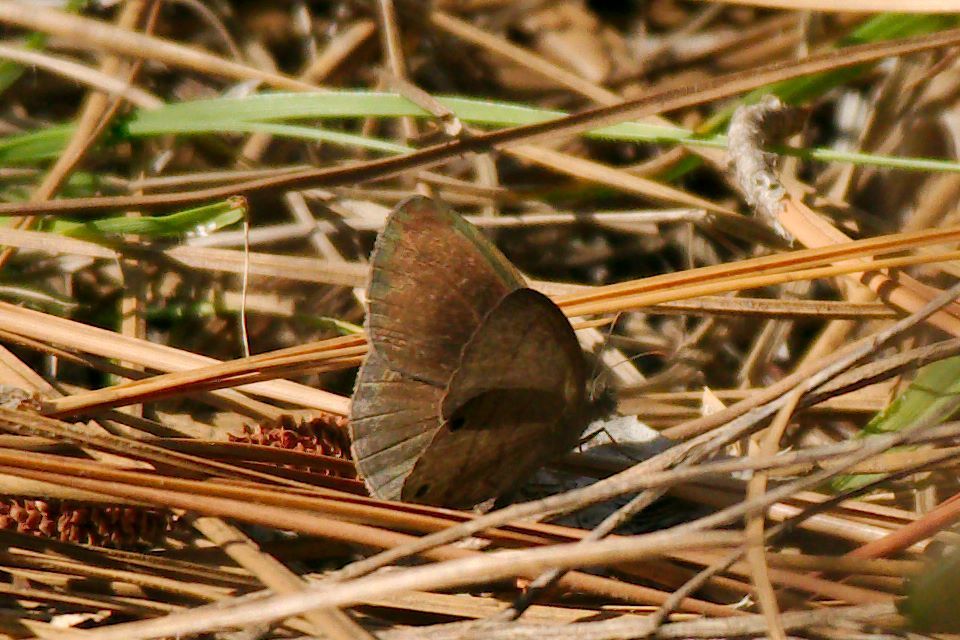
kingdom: Animalia
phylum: Arthropoda
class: Insecta
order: Lepidoptera
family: Nymphalidae
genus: Hermeuptychia
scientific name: Hermeuptychia hermes
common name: Hermes satyr
